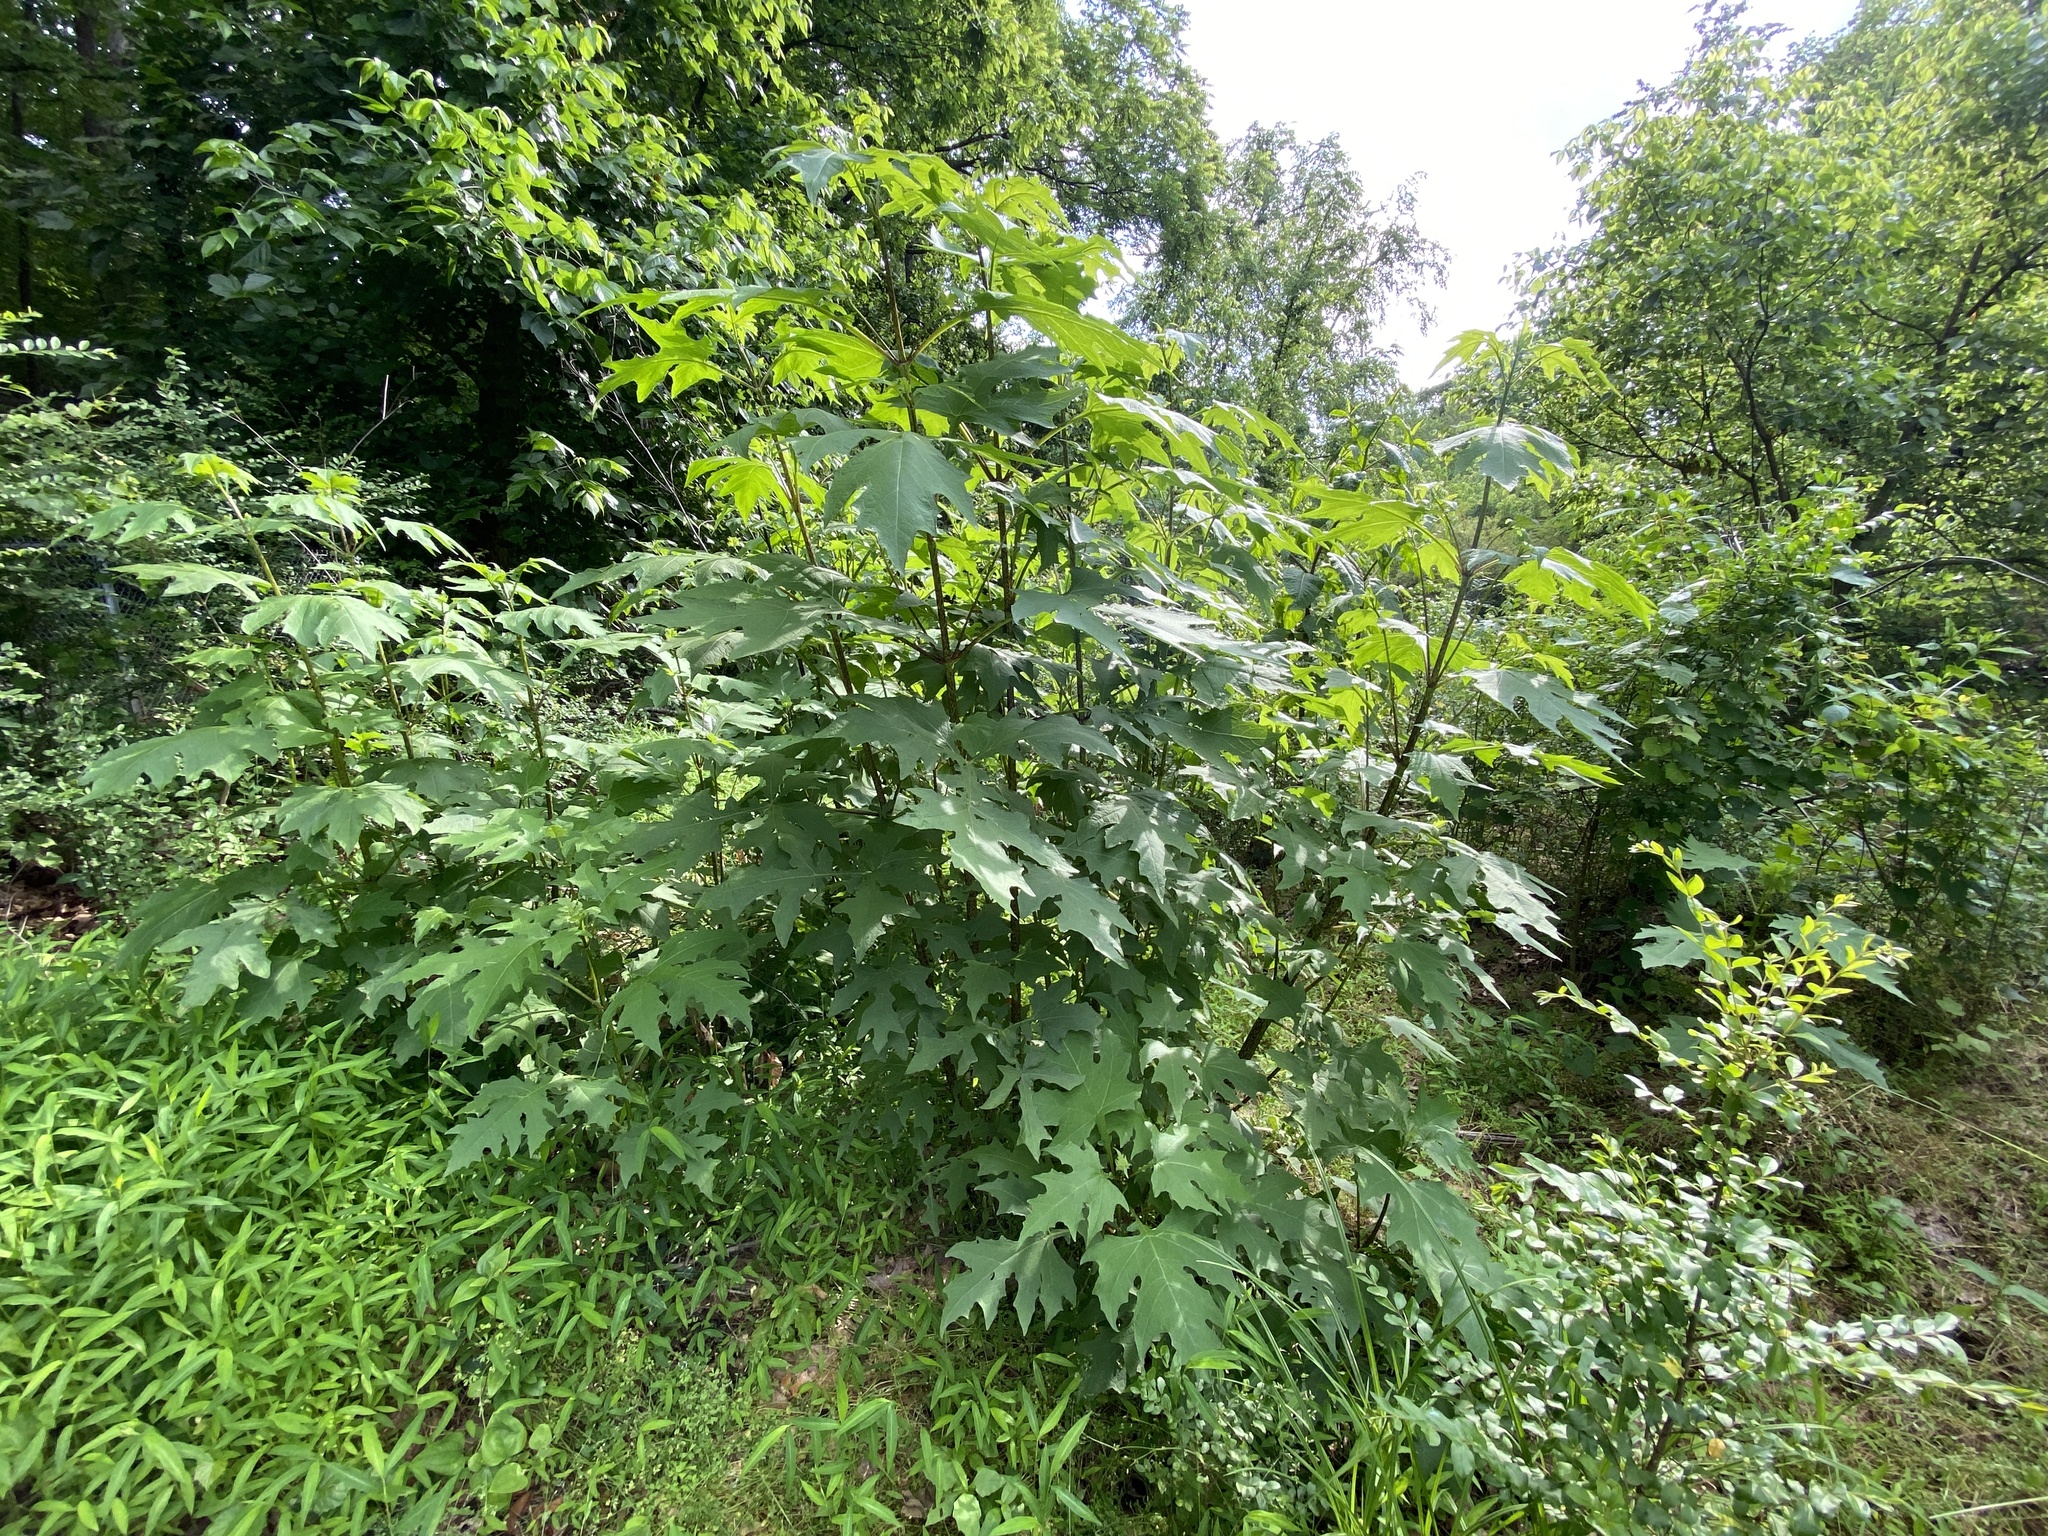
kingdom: Plantae
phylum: Tracheophyta
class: Magnoliopsida
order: Asterales
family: Asteraceae
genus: Smallanthus
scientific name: Smallanthus uvedalia
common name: Bear's-foot
